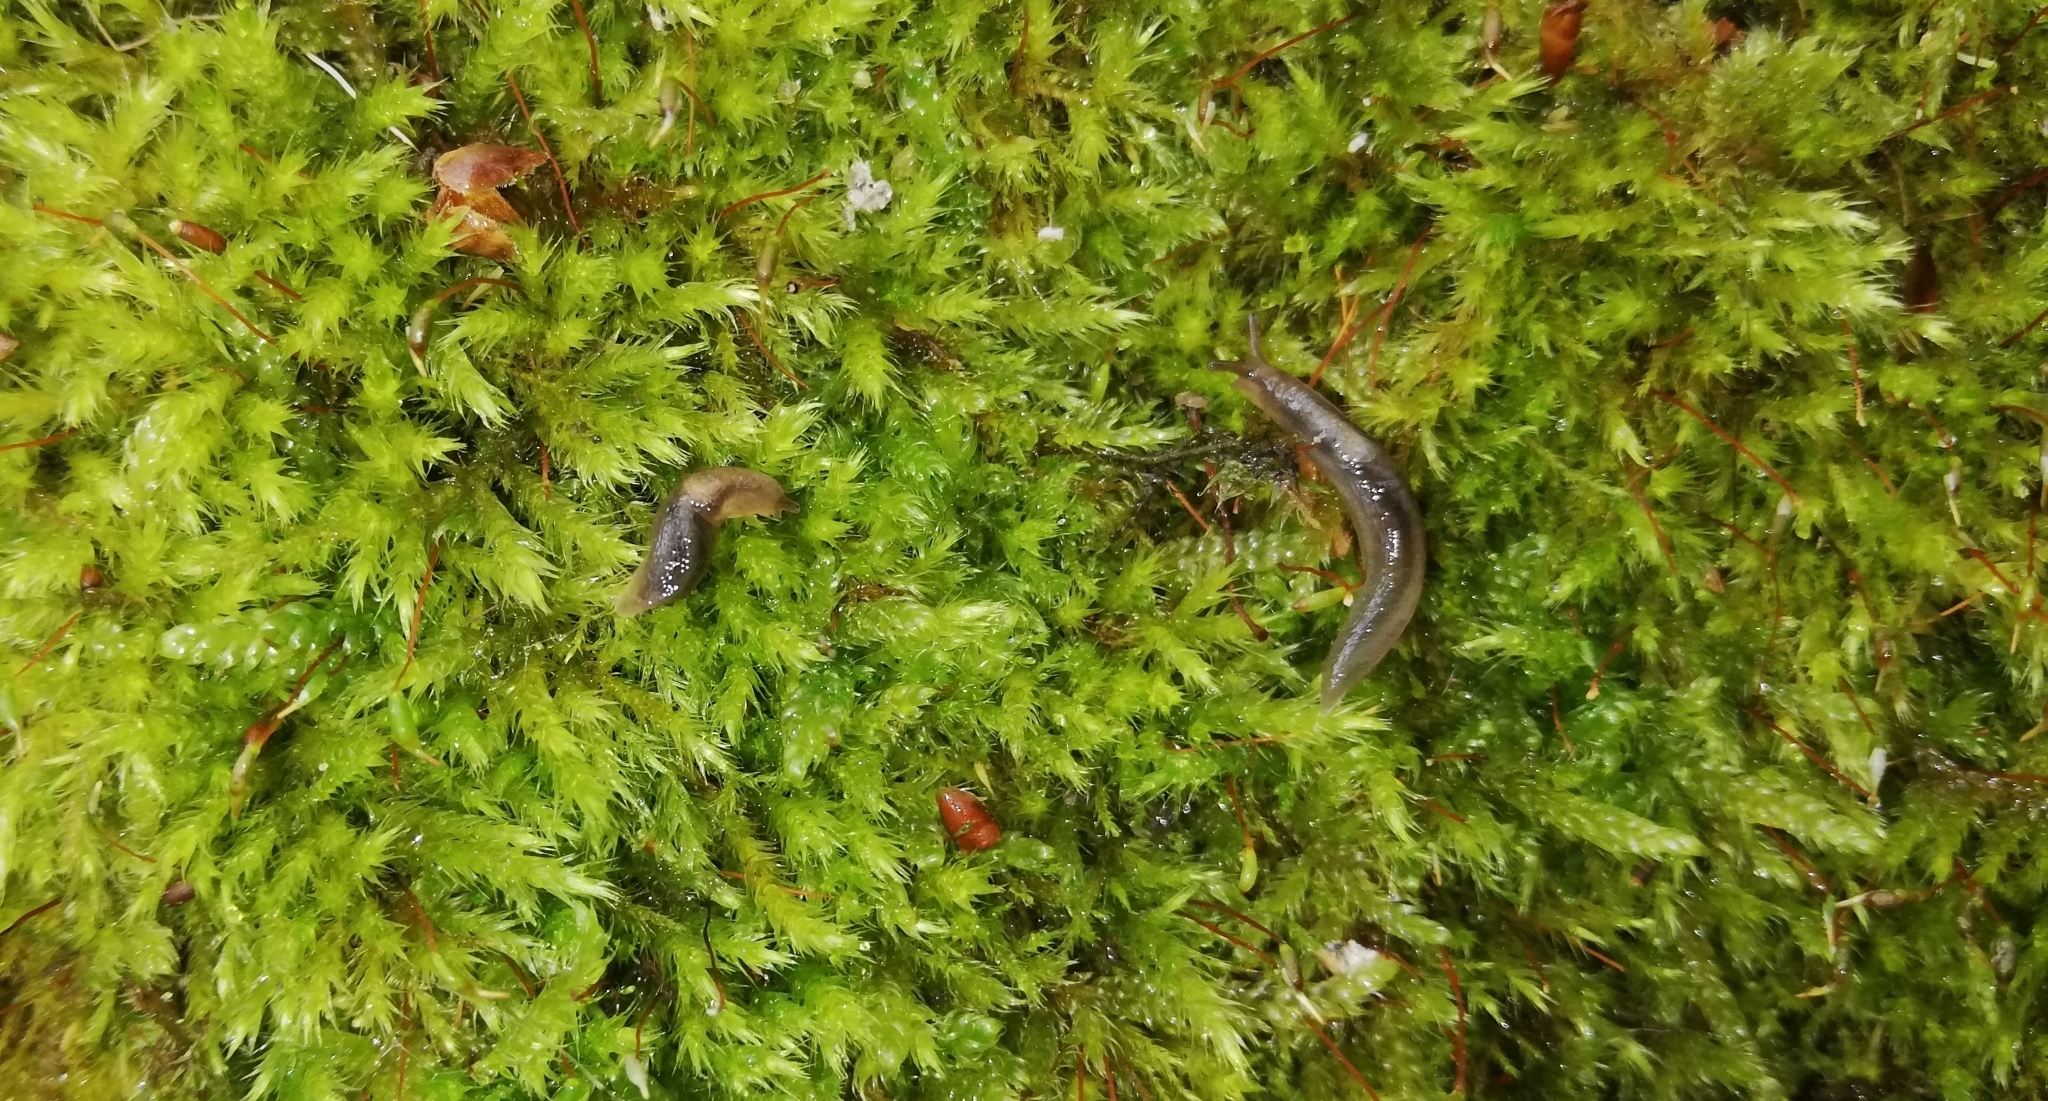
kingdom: Animalia
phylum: Mollusca
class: Gastropoda
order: Stylommatophora
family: Limacidae
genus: Lehmannia
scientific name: Lehmannia marginata
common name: Tree slug
